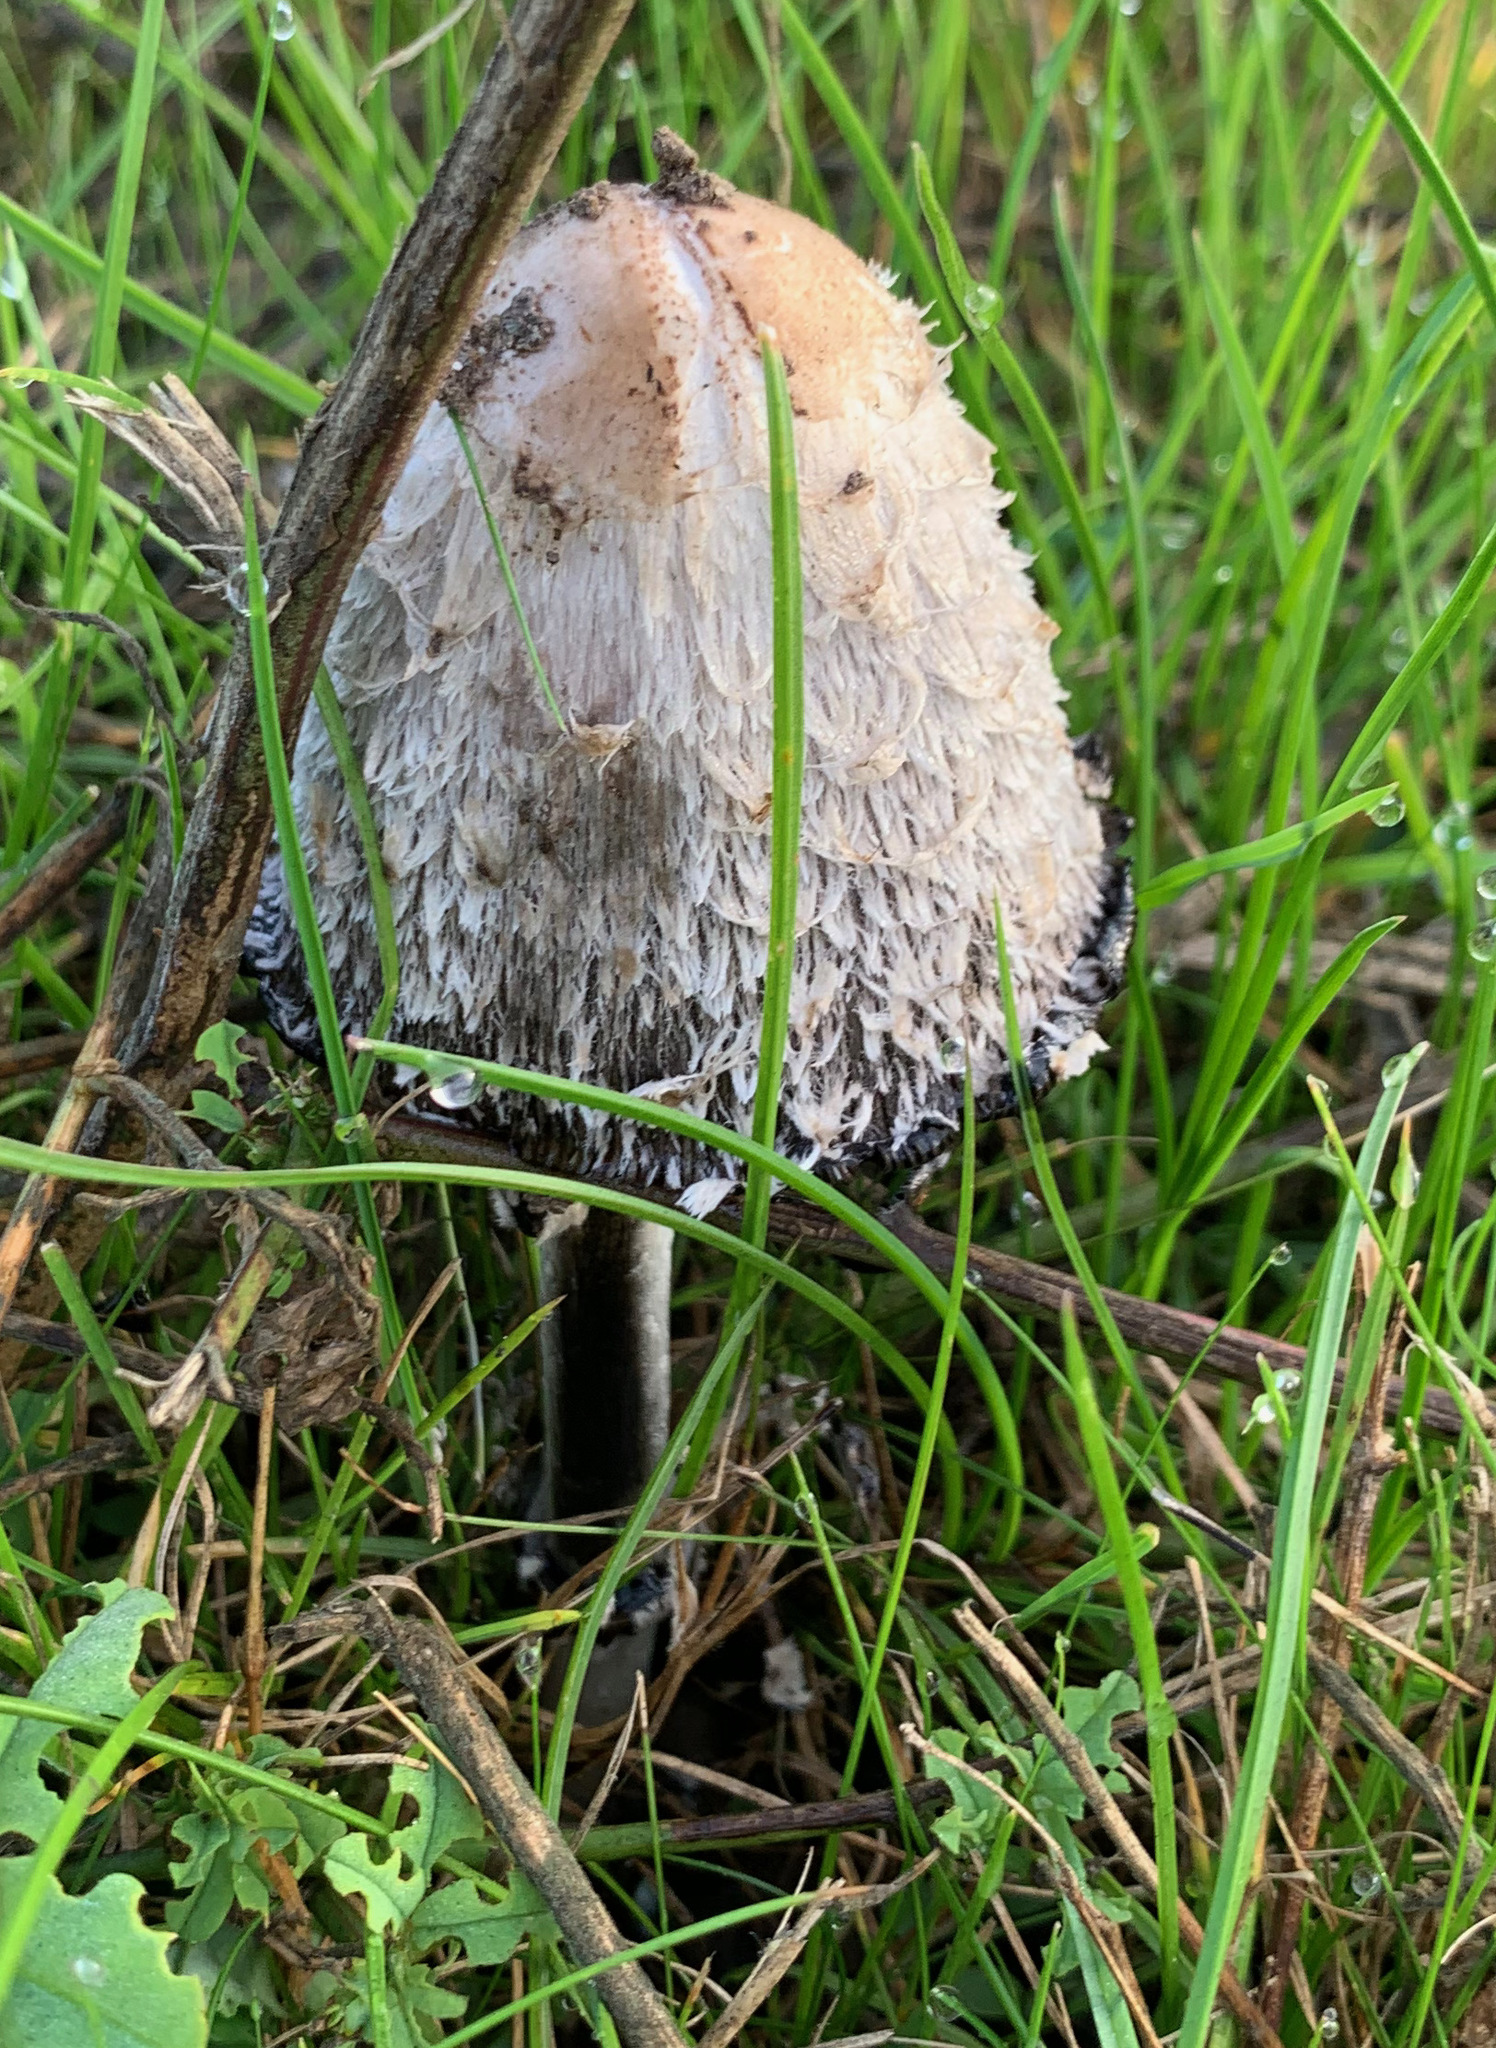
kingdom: Fungi
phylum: Basidiomycota
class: Agaricomycetes
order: Agaricales
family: Agaricaceae
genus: Coprinus
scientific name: Coprinus comatus
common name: Lawyer's wig
